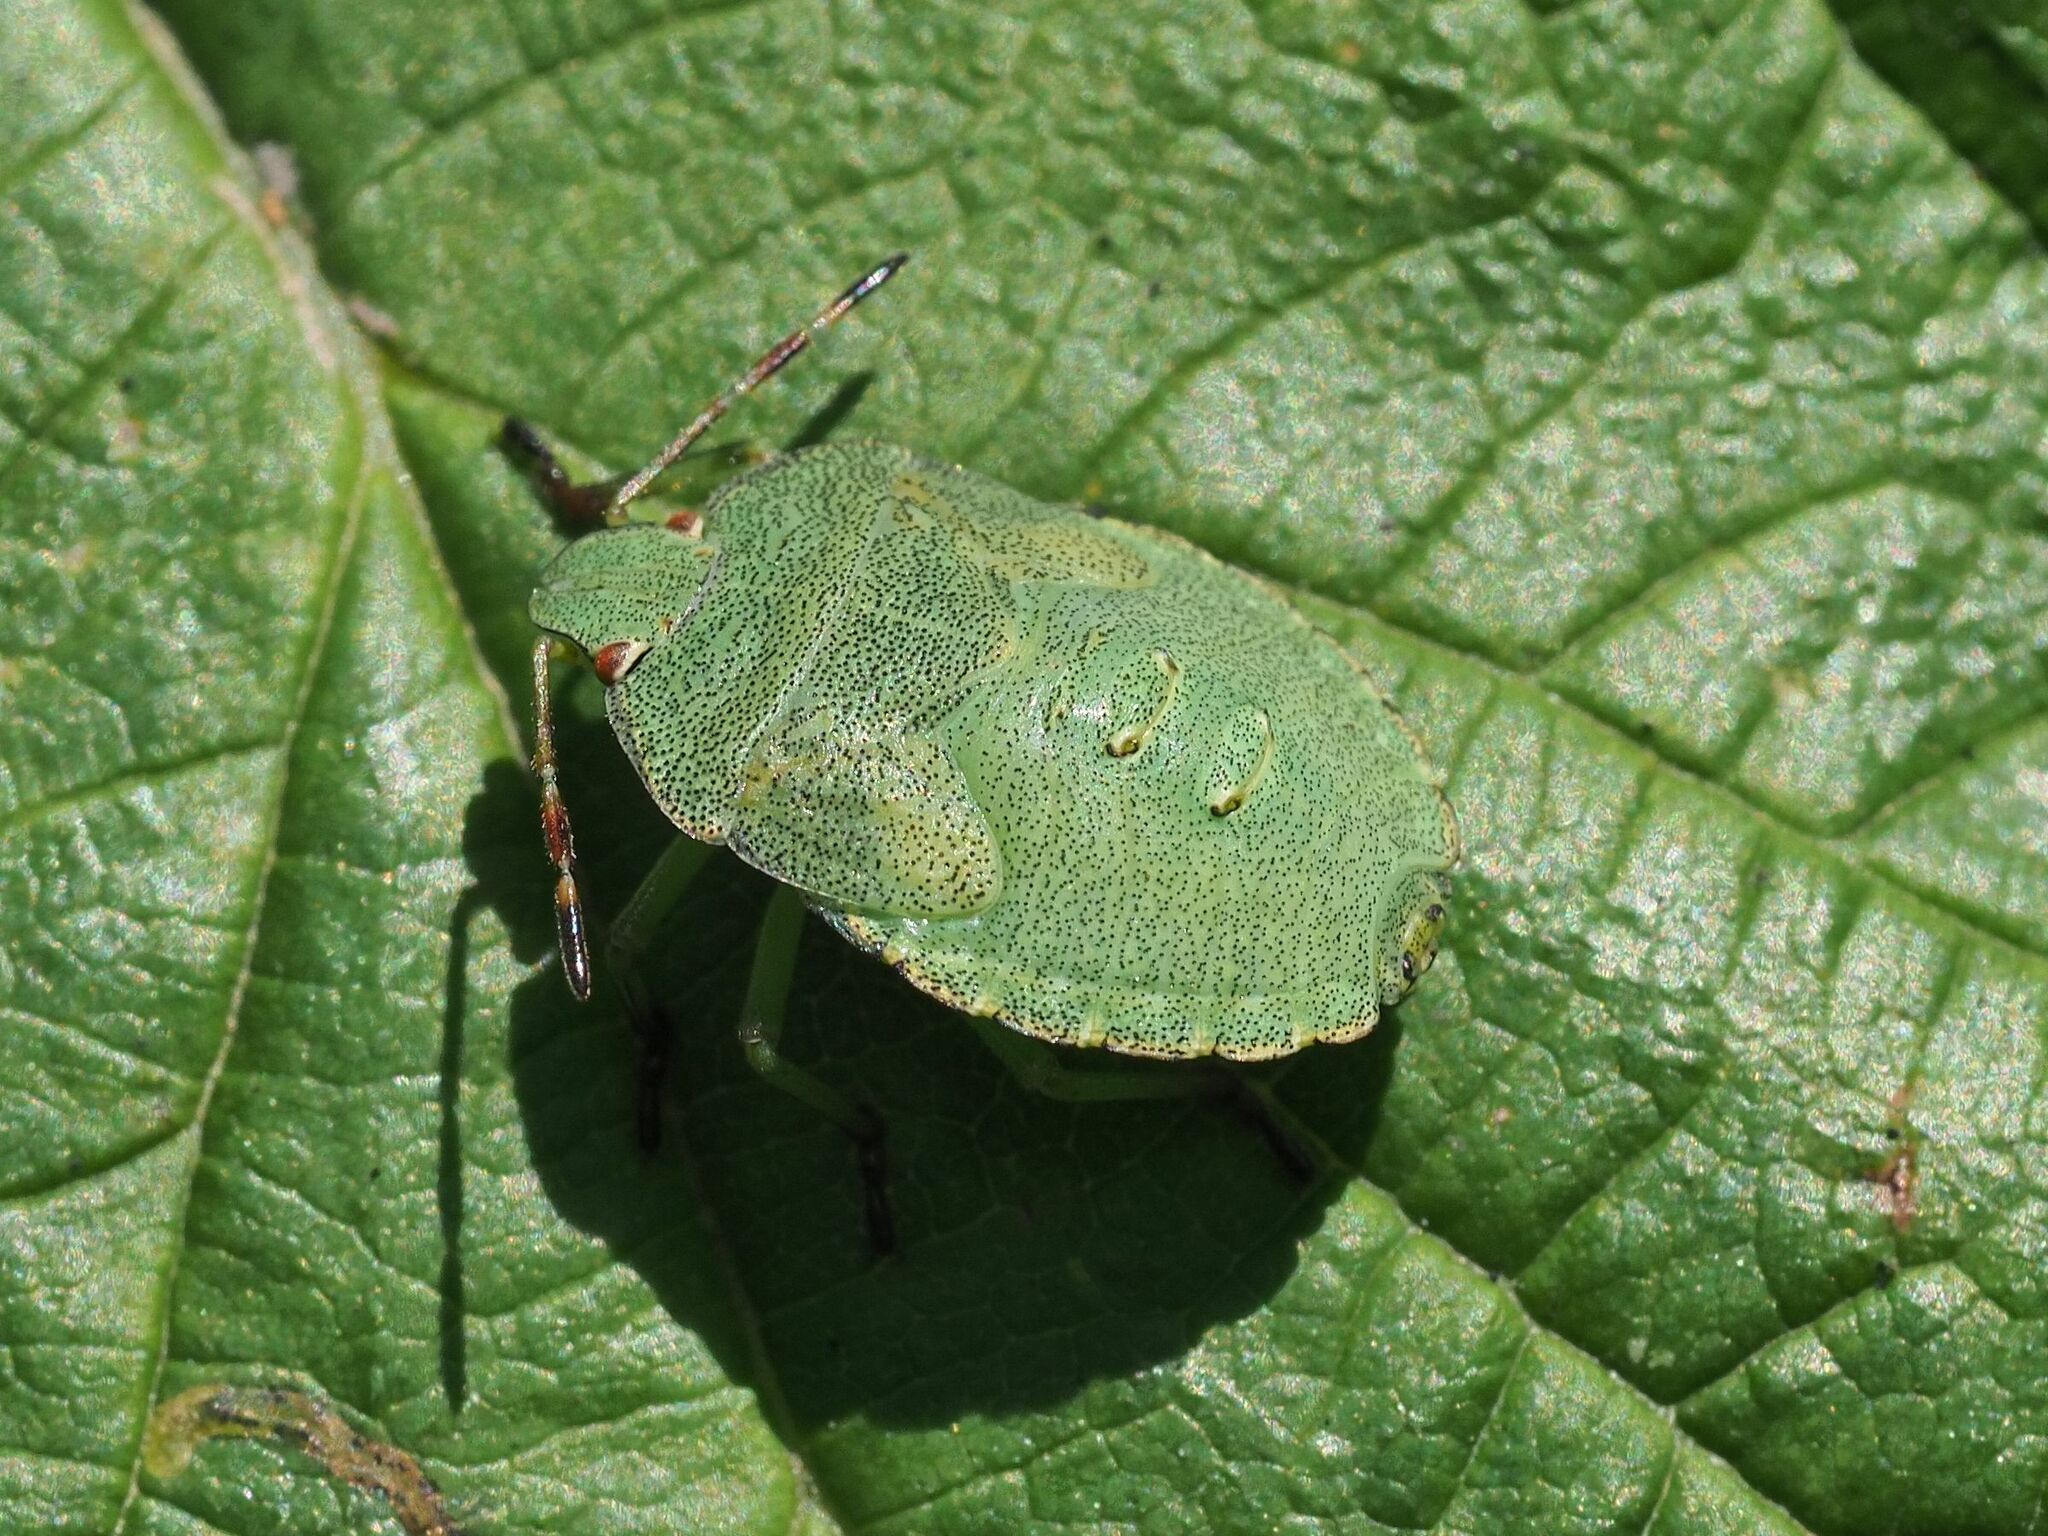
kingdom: Animalia
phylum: Arthropoda
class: Insecta
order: Hemiptera
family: Pentatomidae
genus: Palomena
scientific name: Palomena prasina
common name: Green shieldbug
